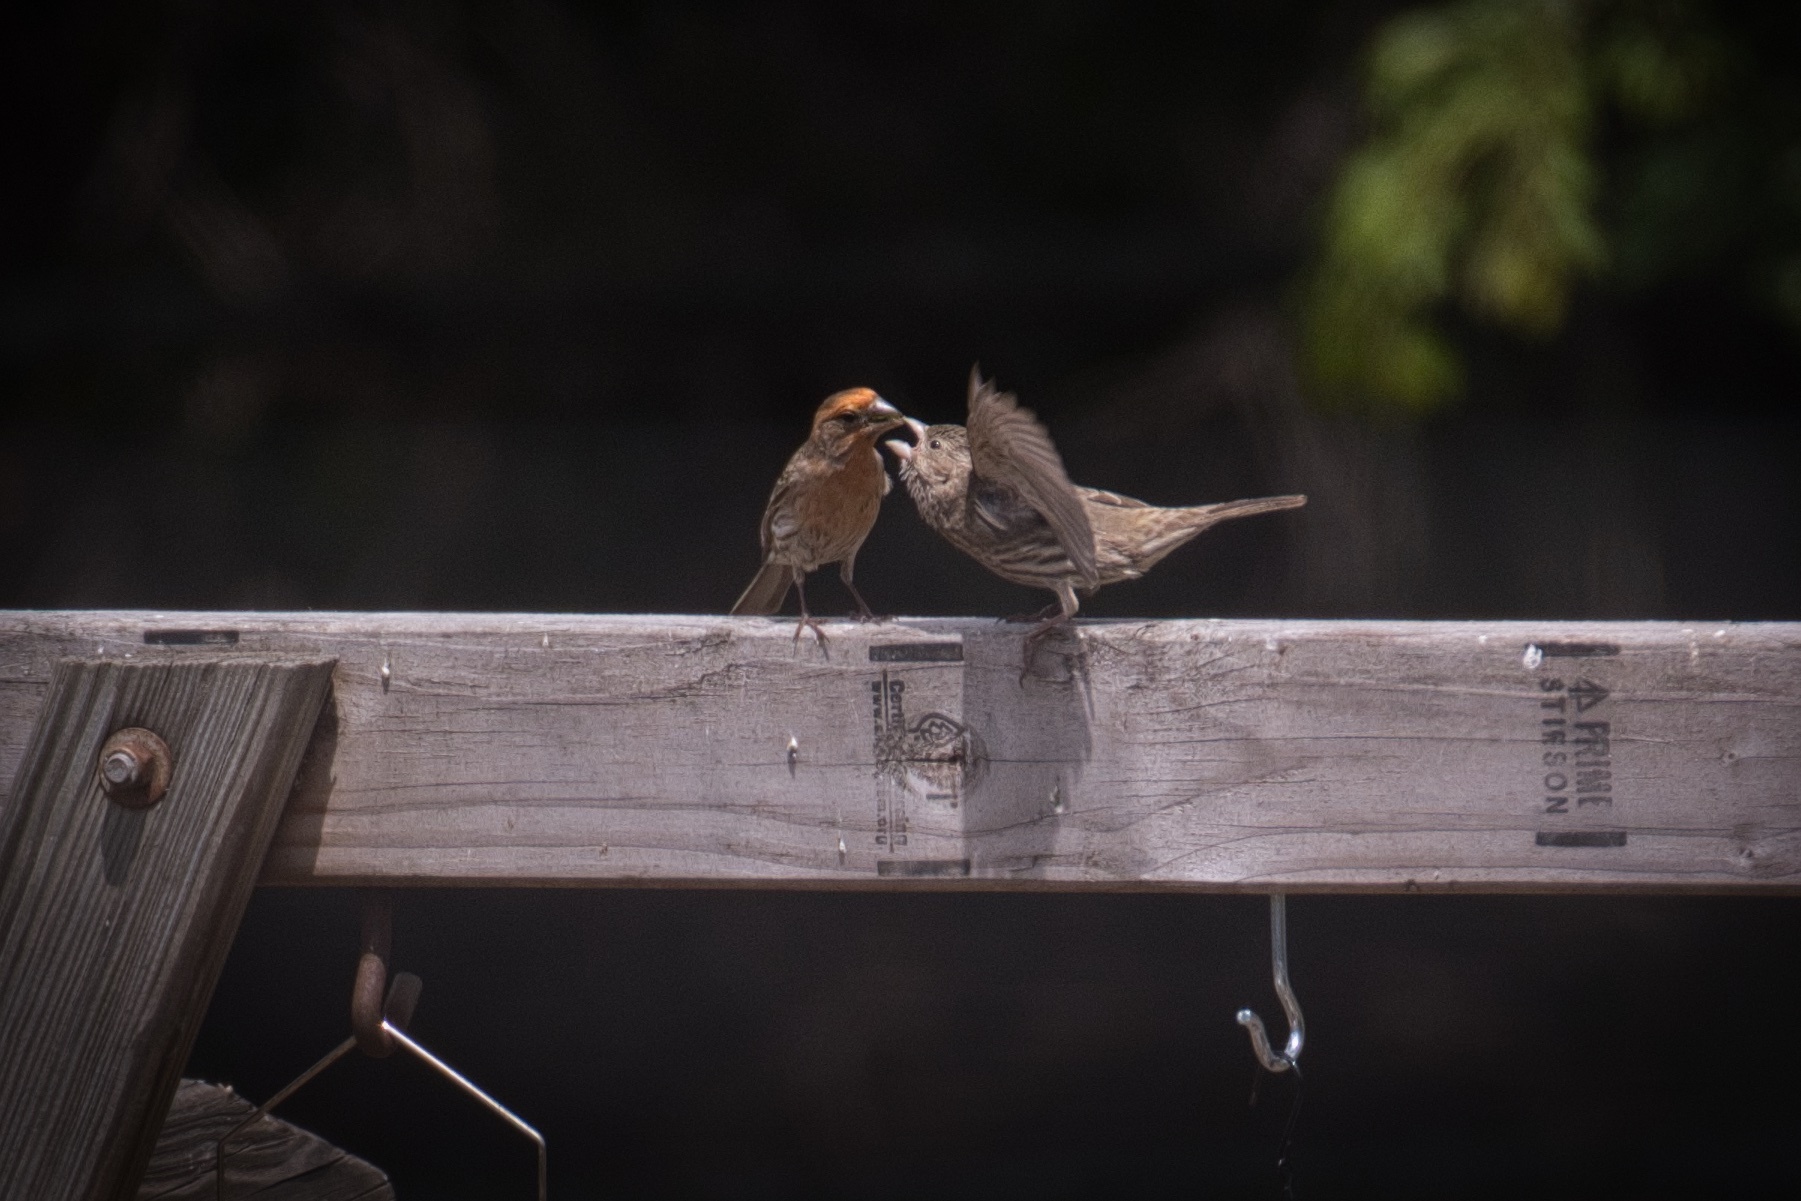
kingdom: Animalia
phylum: Chordata
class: Aves
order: Passeriformes
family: Fringillidae
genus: Haemorhous
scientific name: Haemorhous mexicanus
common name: House finch
